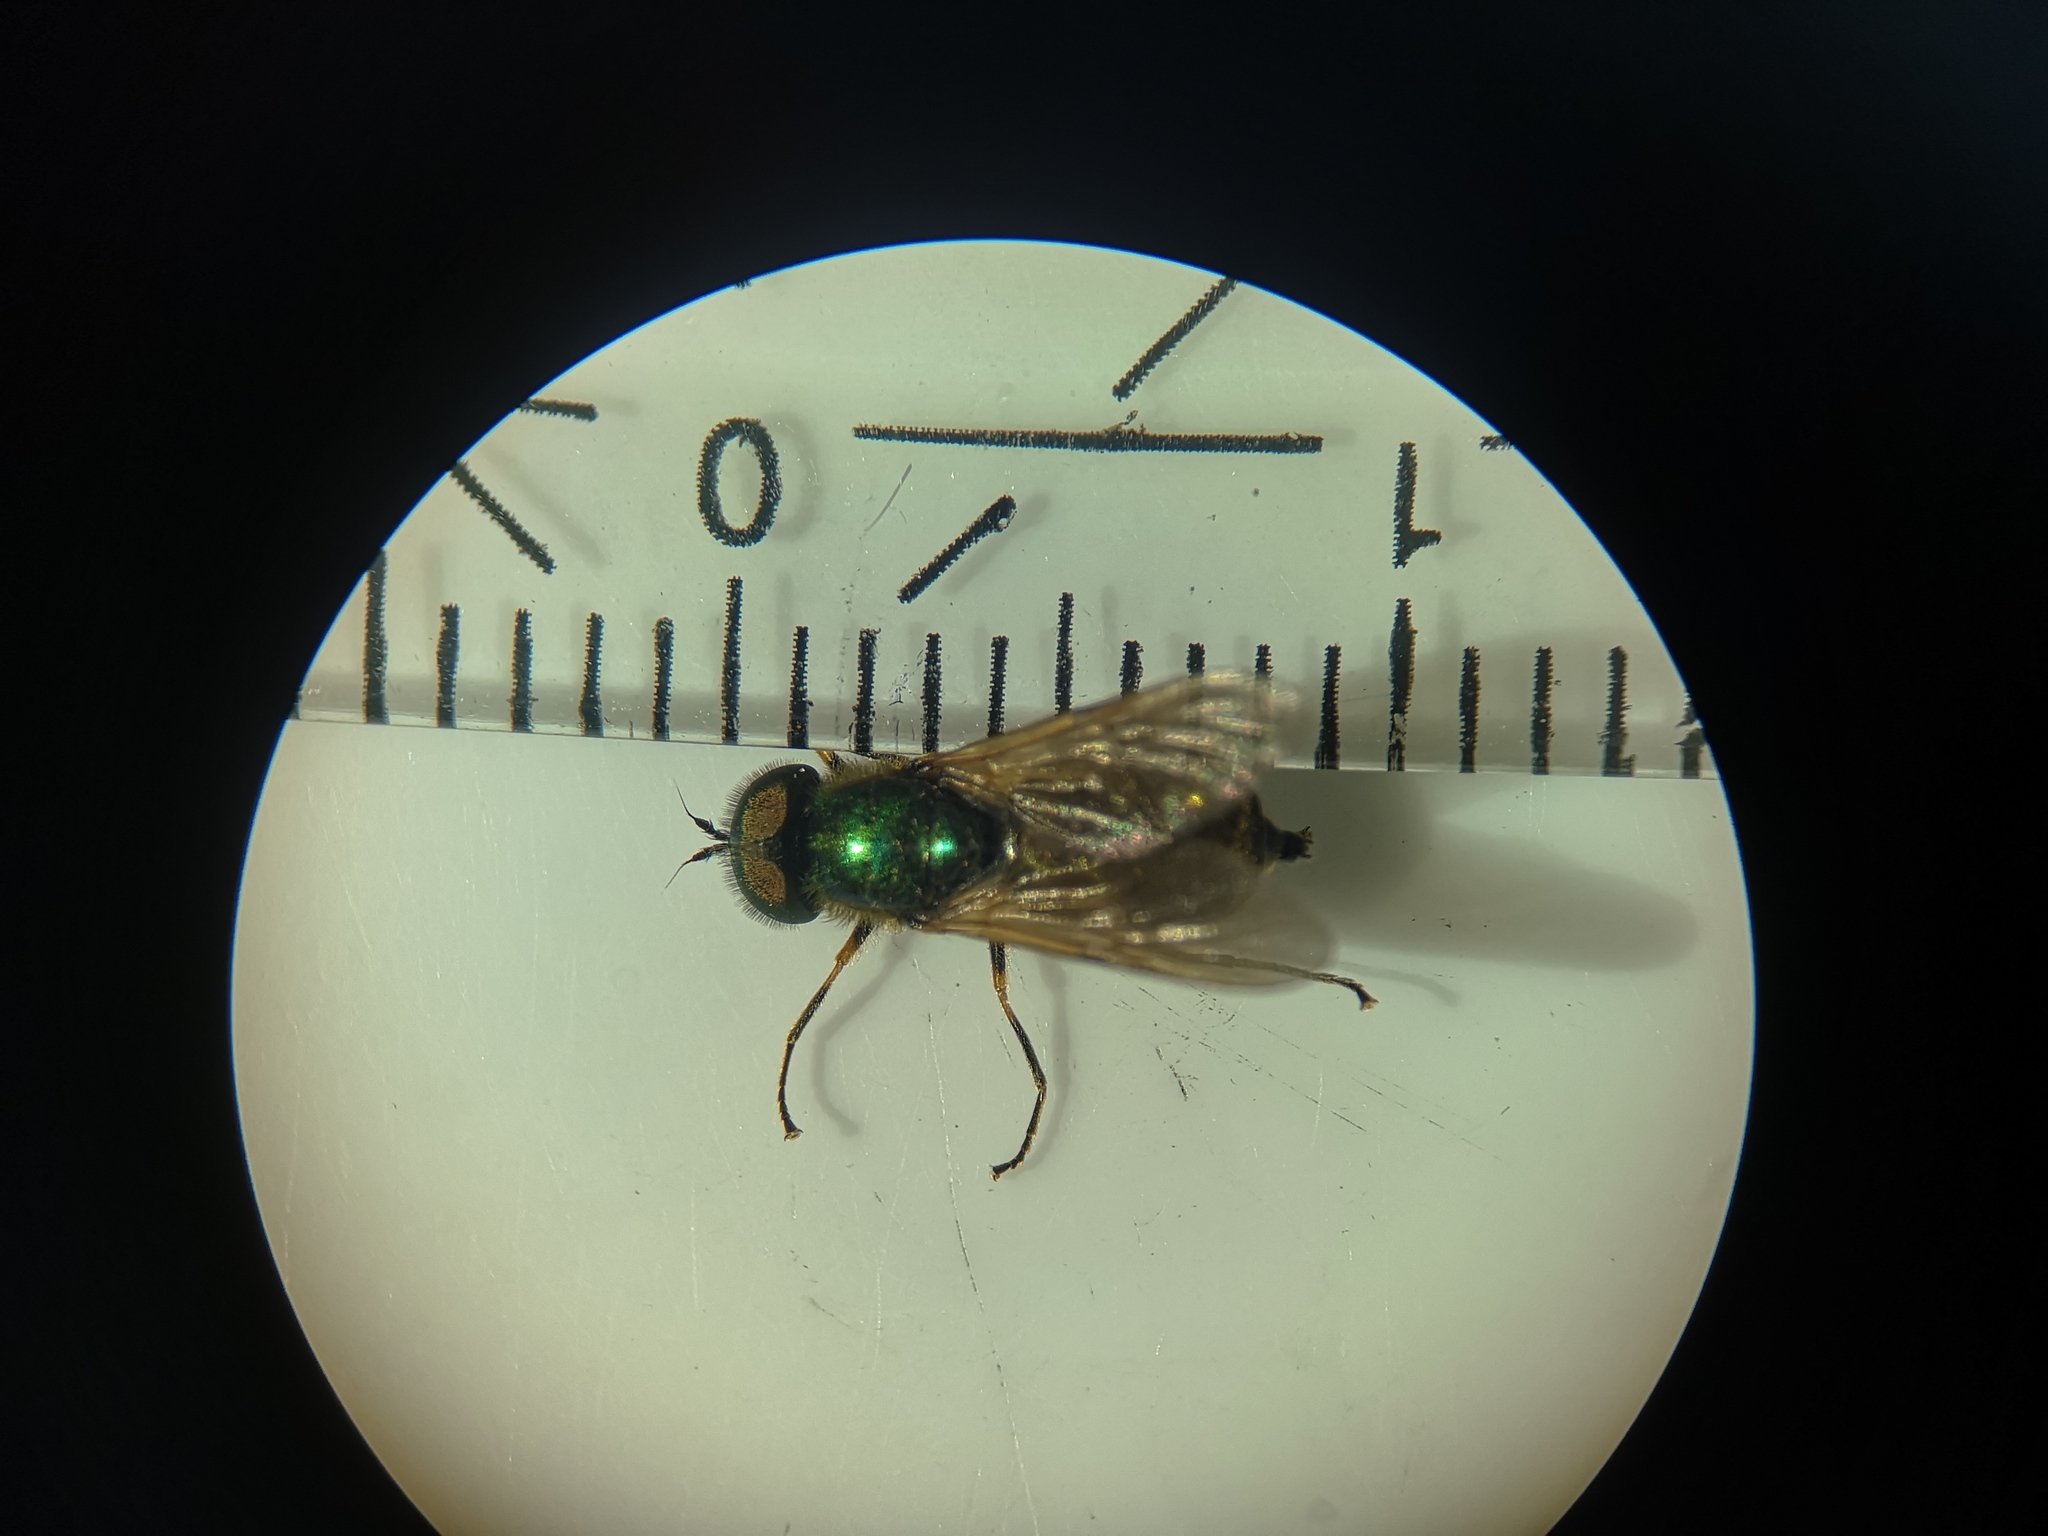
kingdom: Animalia
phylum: Arthropoda
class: Insecta
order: Diptera
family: Stratiomyidae
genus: Chloromyia
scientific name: Chloromyia formosa
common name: Soldier fly
